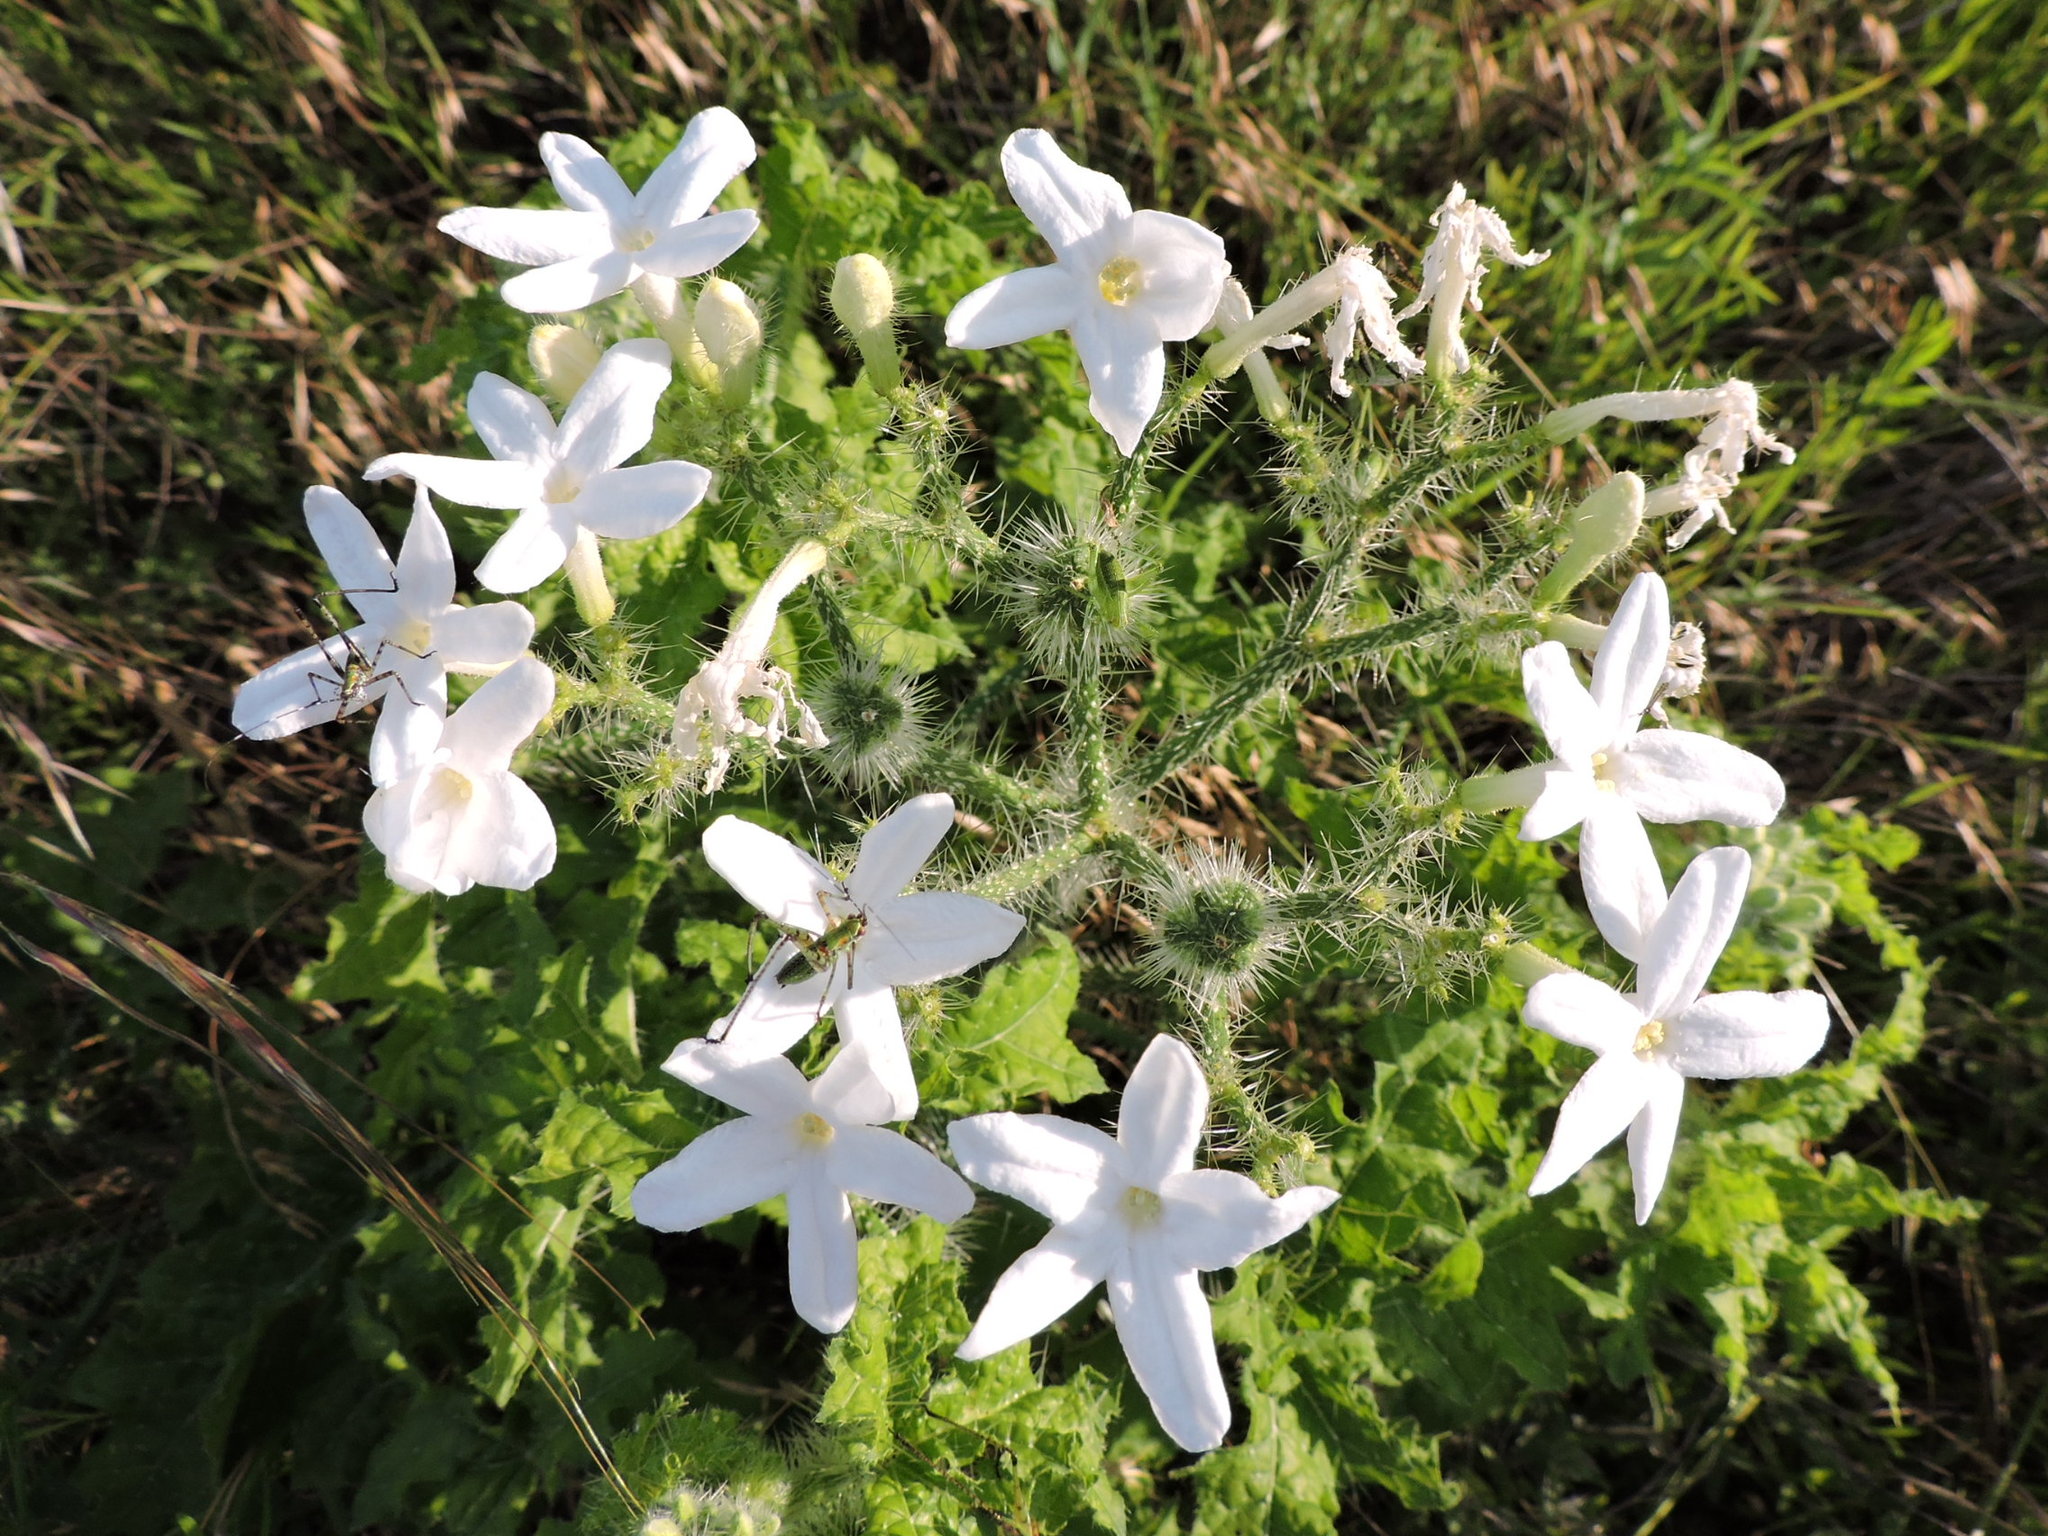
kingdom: Plantae
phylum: Tracheophyta
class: Magnoliopsida
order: Malpighiales
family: Euphorbiaceae
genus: Cnidoscolus
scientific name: Cnidoscolus texanus
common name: Texas bull-nettle
